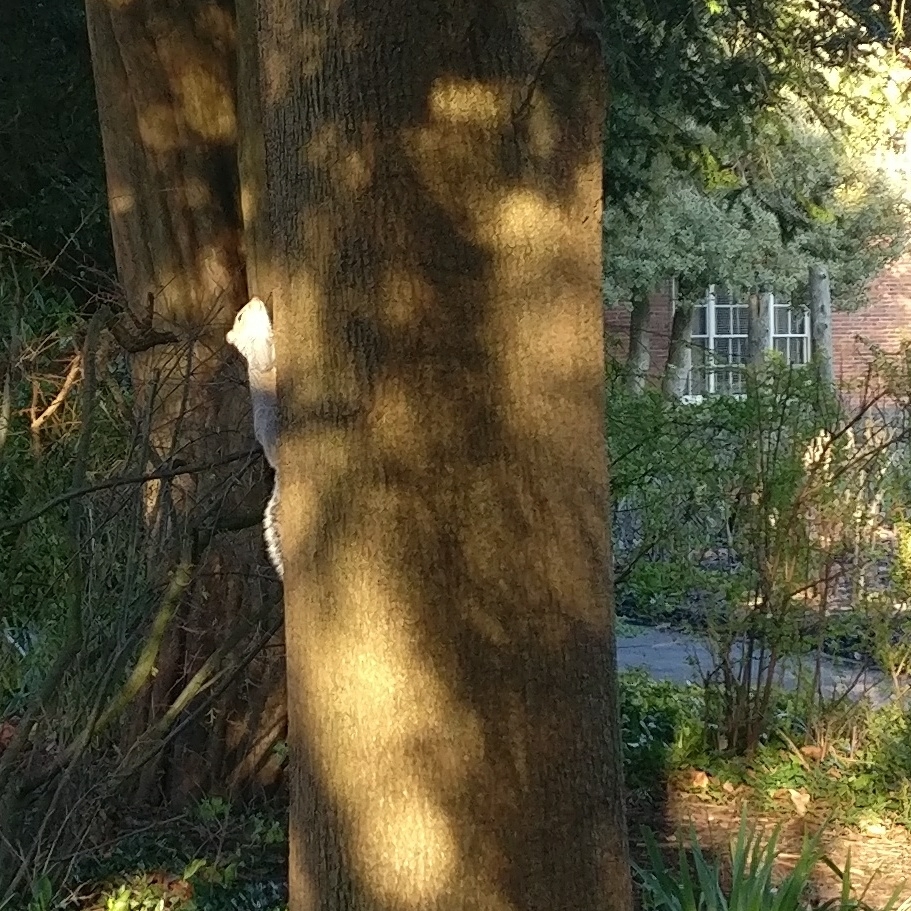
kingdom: Animalia
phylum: Chordata
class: Mammalia
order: Rodentia
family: Sciuridae
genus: Sciurus
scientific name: Sciurus carolinensis
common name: Eastern gray squirrel
